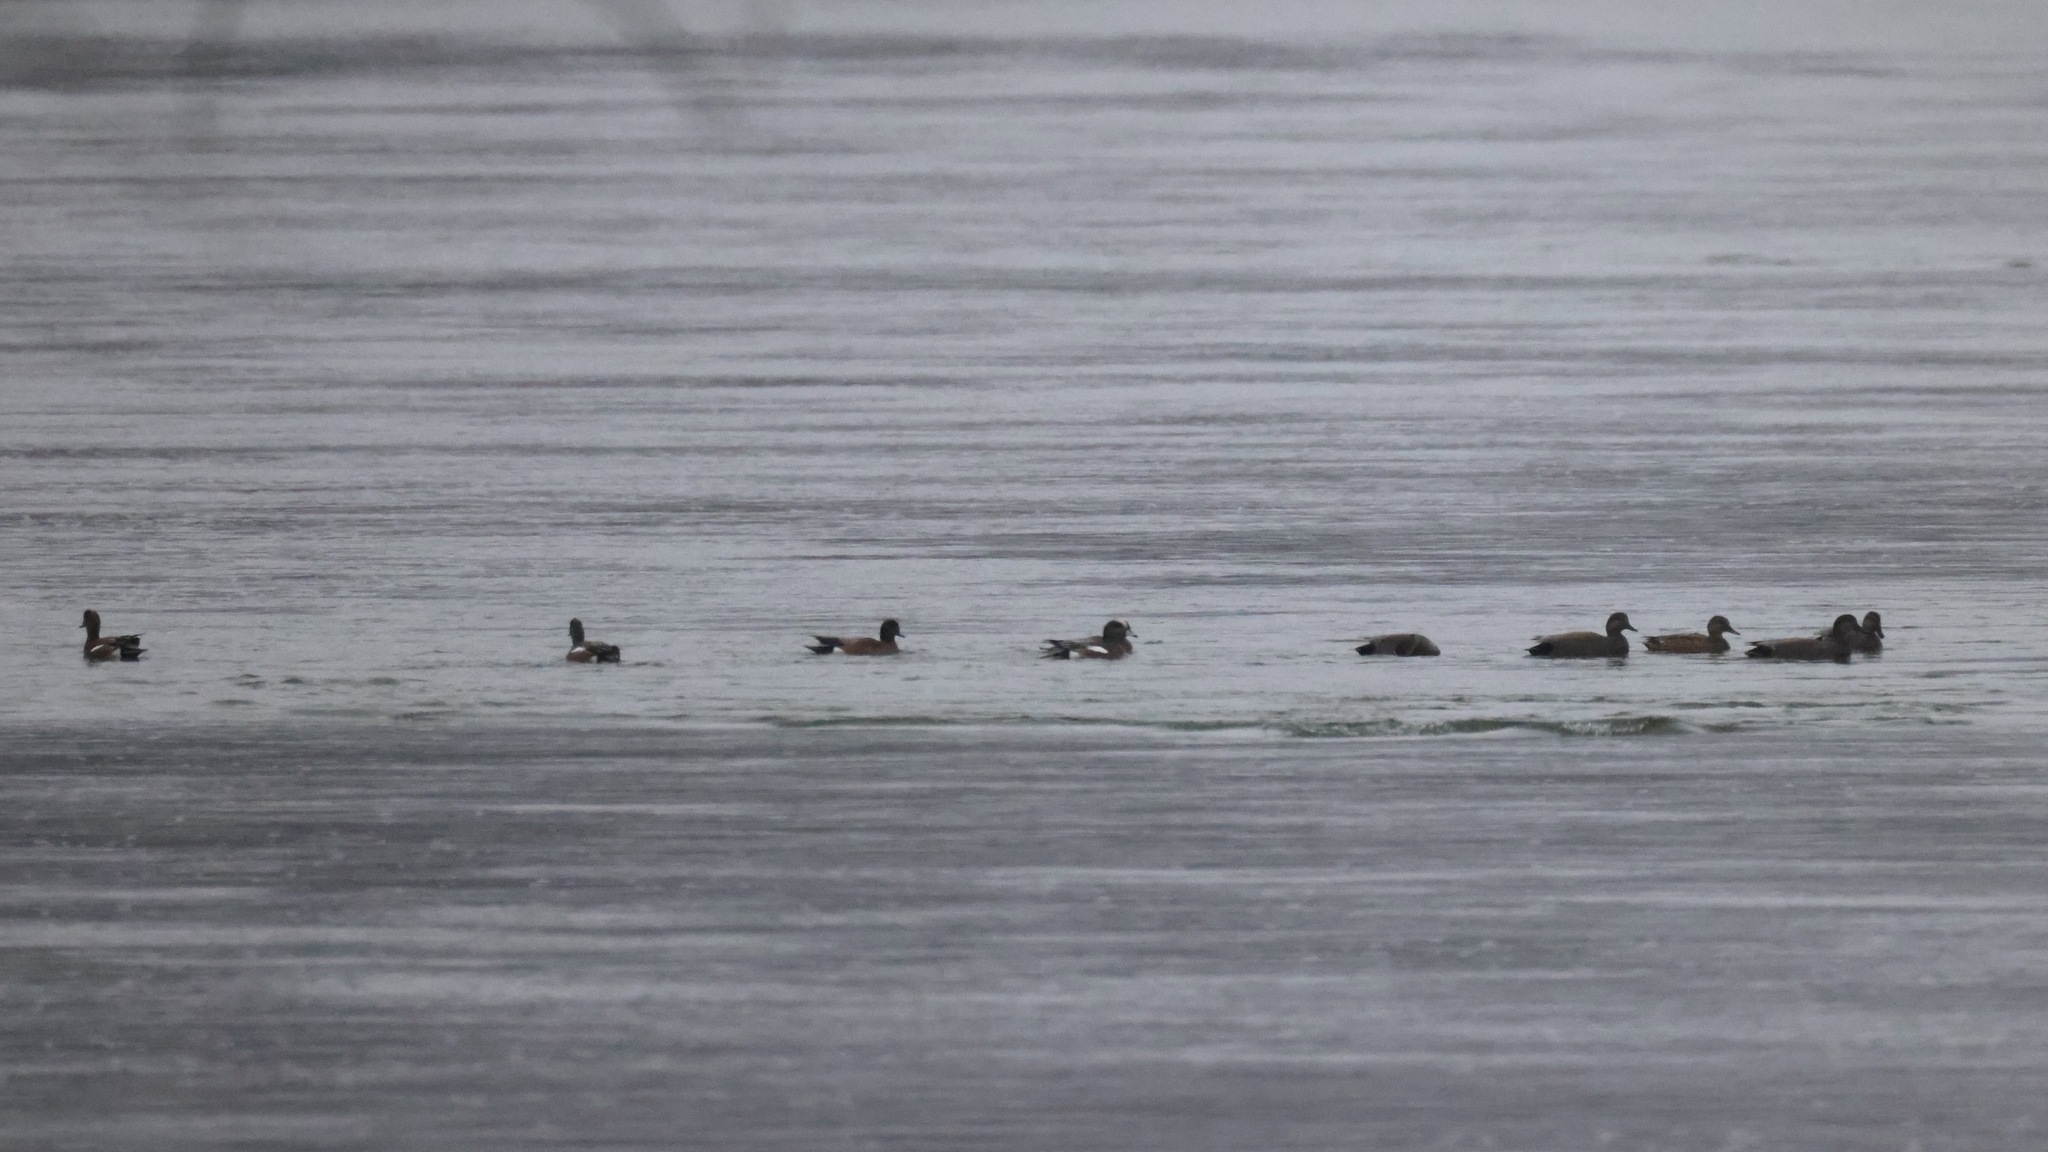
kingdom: Animalia
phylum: Chordata
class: Aves
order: Anseriformes
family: Anatidae
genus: Mareca
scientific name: Mareca americana
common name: American wigeon
